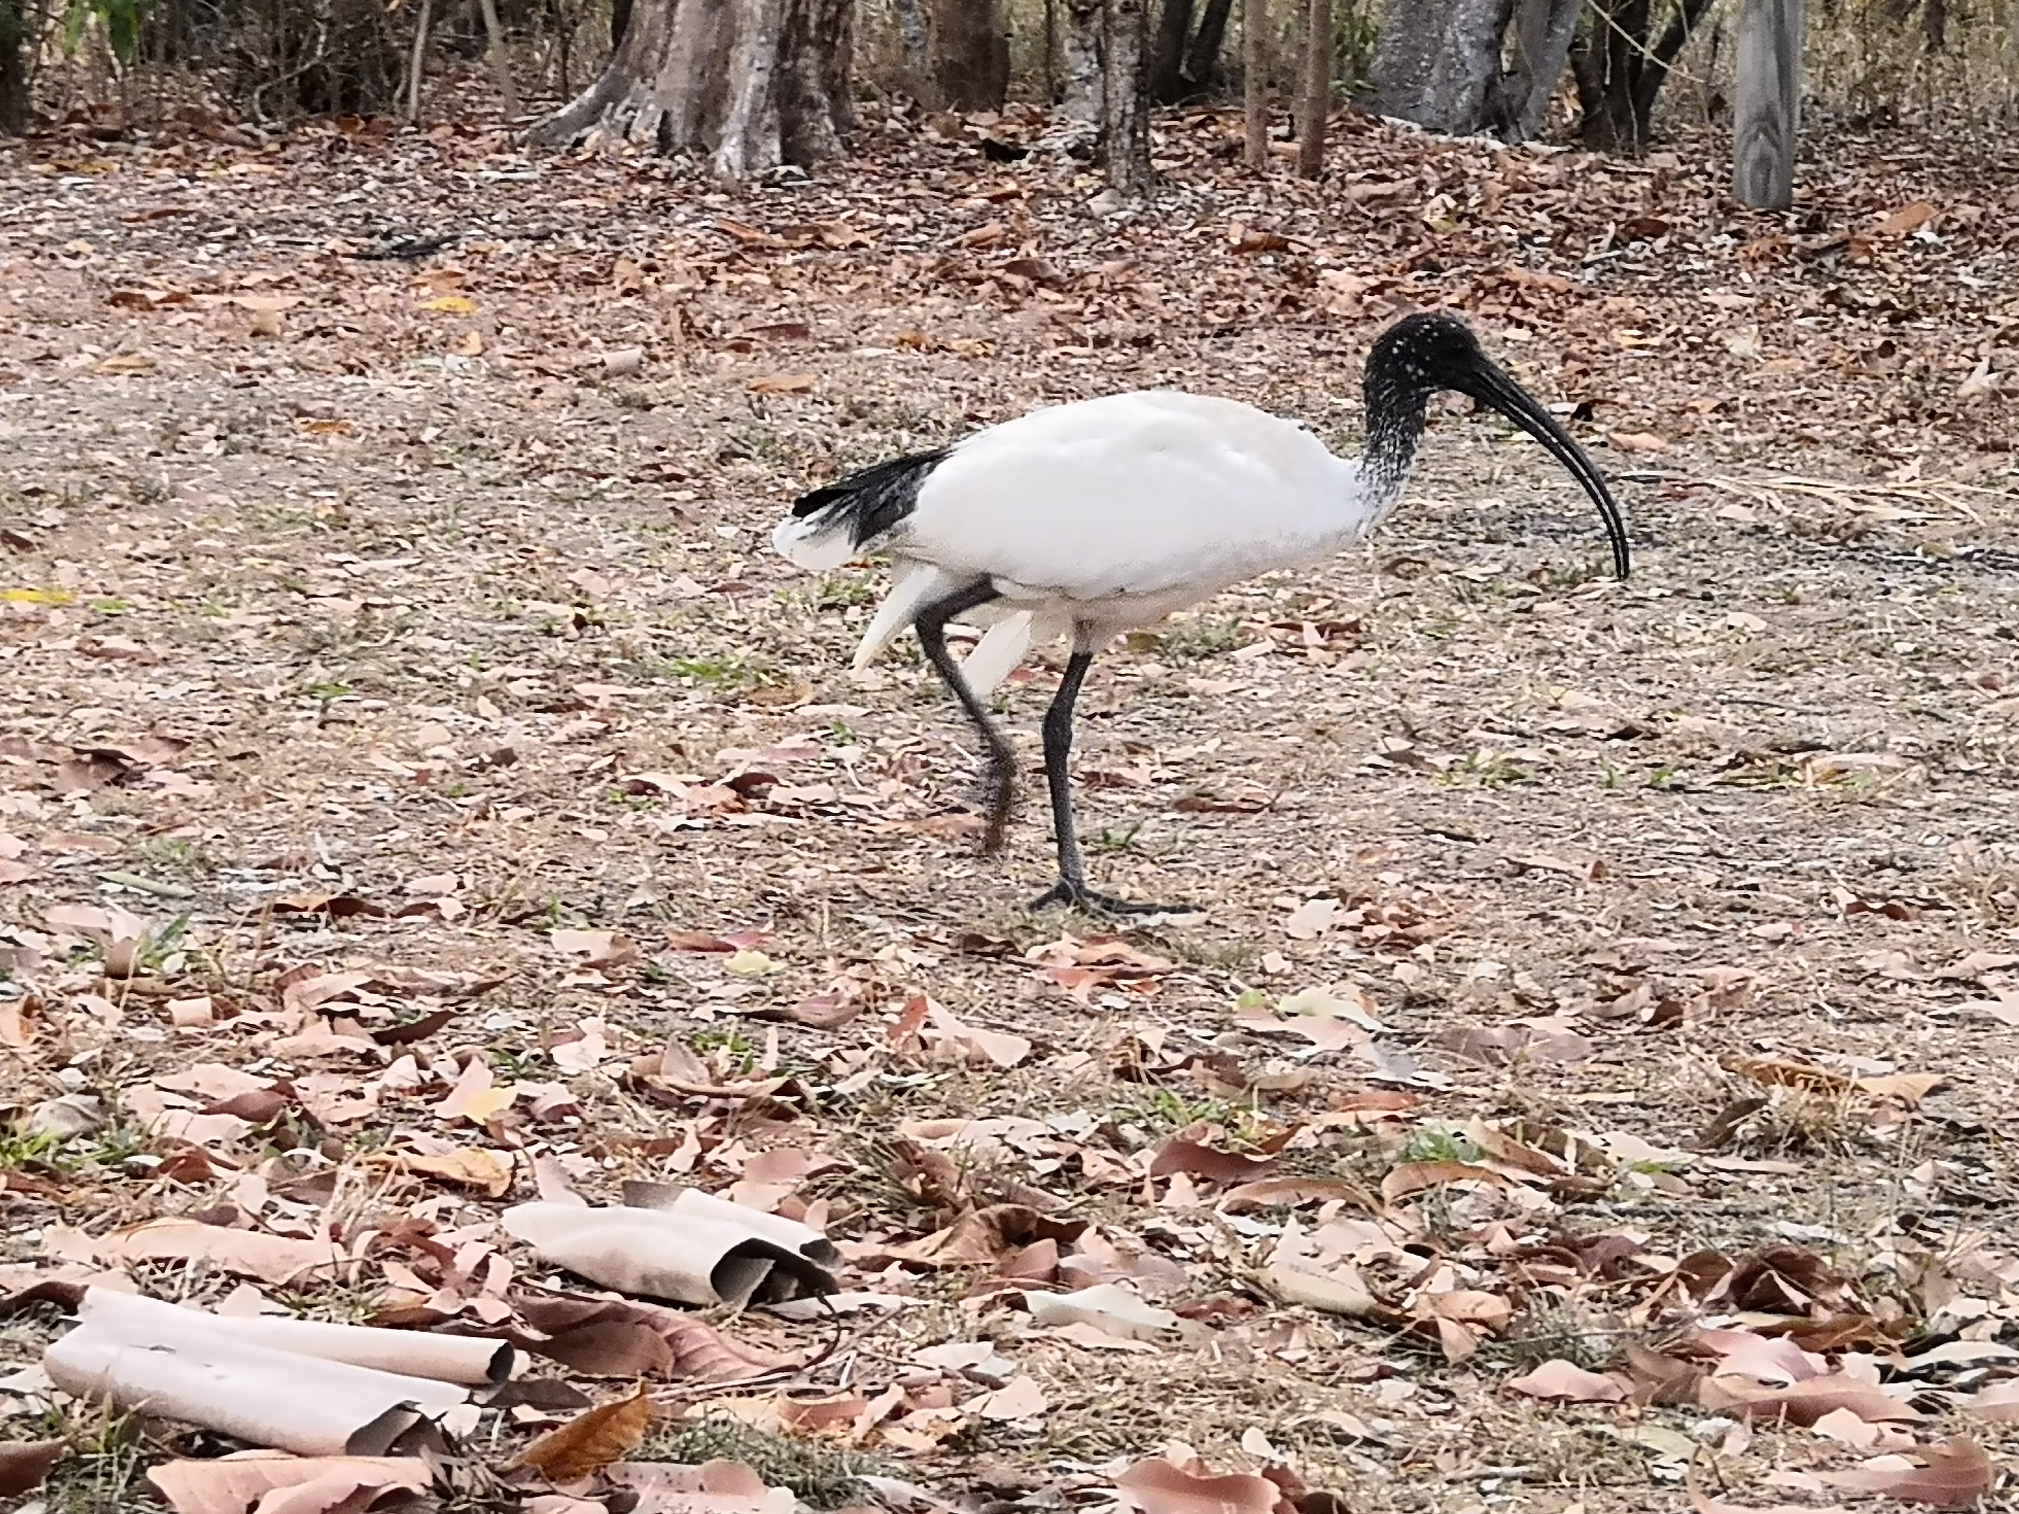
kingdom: Animalia
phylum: Chordata
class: Aves
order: Pelecaniformes
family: Threskiornithidae
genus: Threskiornis
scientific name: Threskiornis molucca
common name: Australian white ibis
